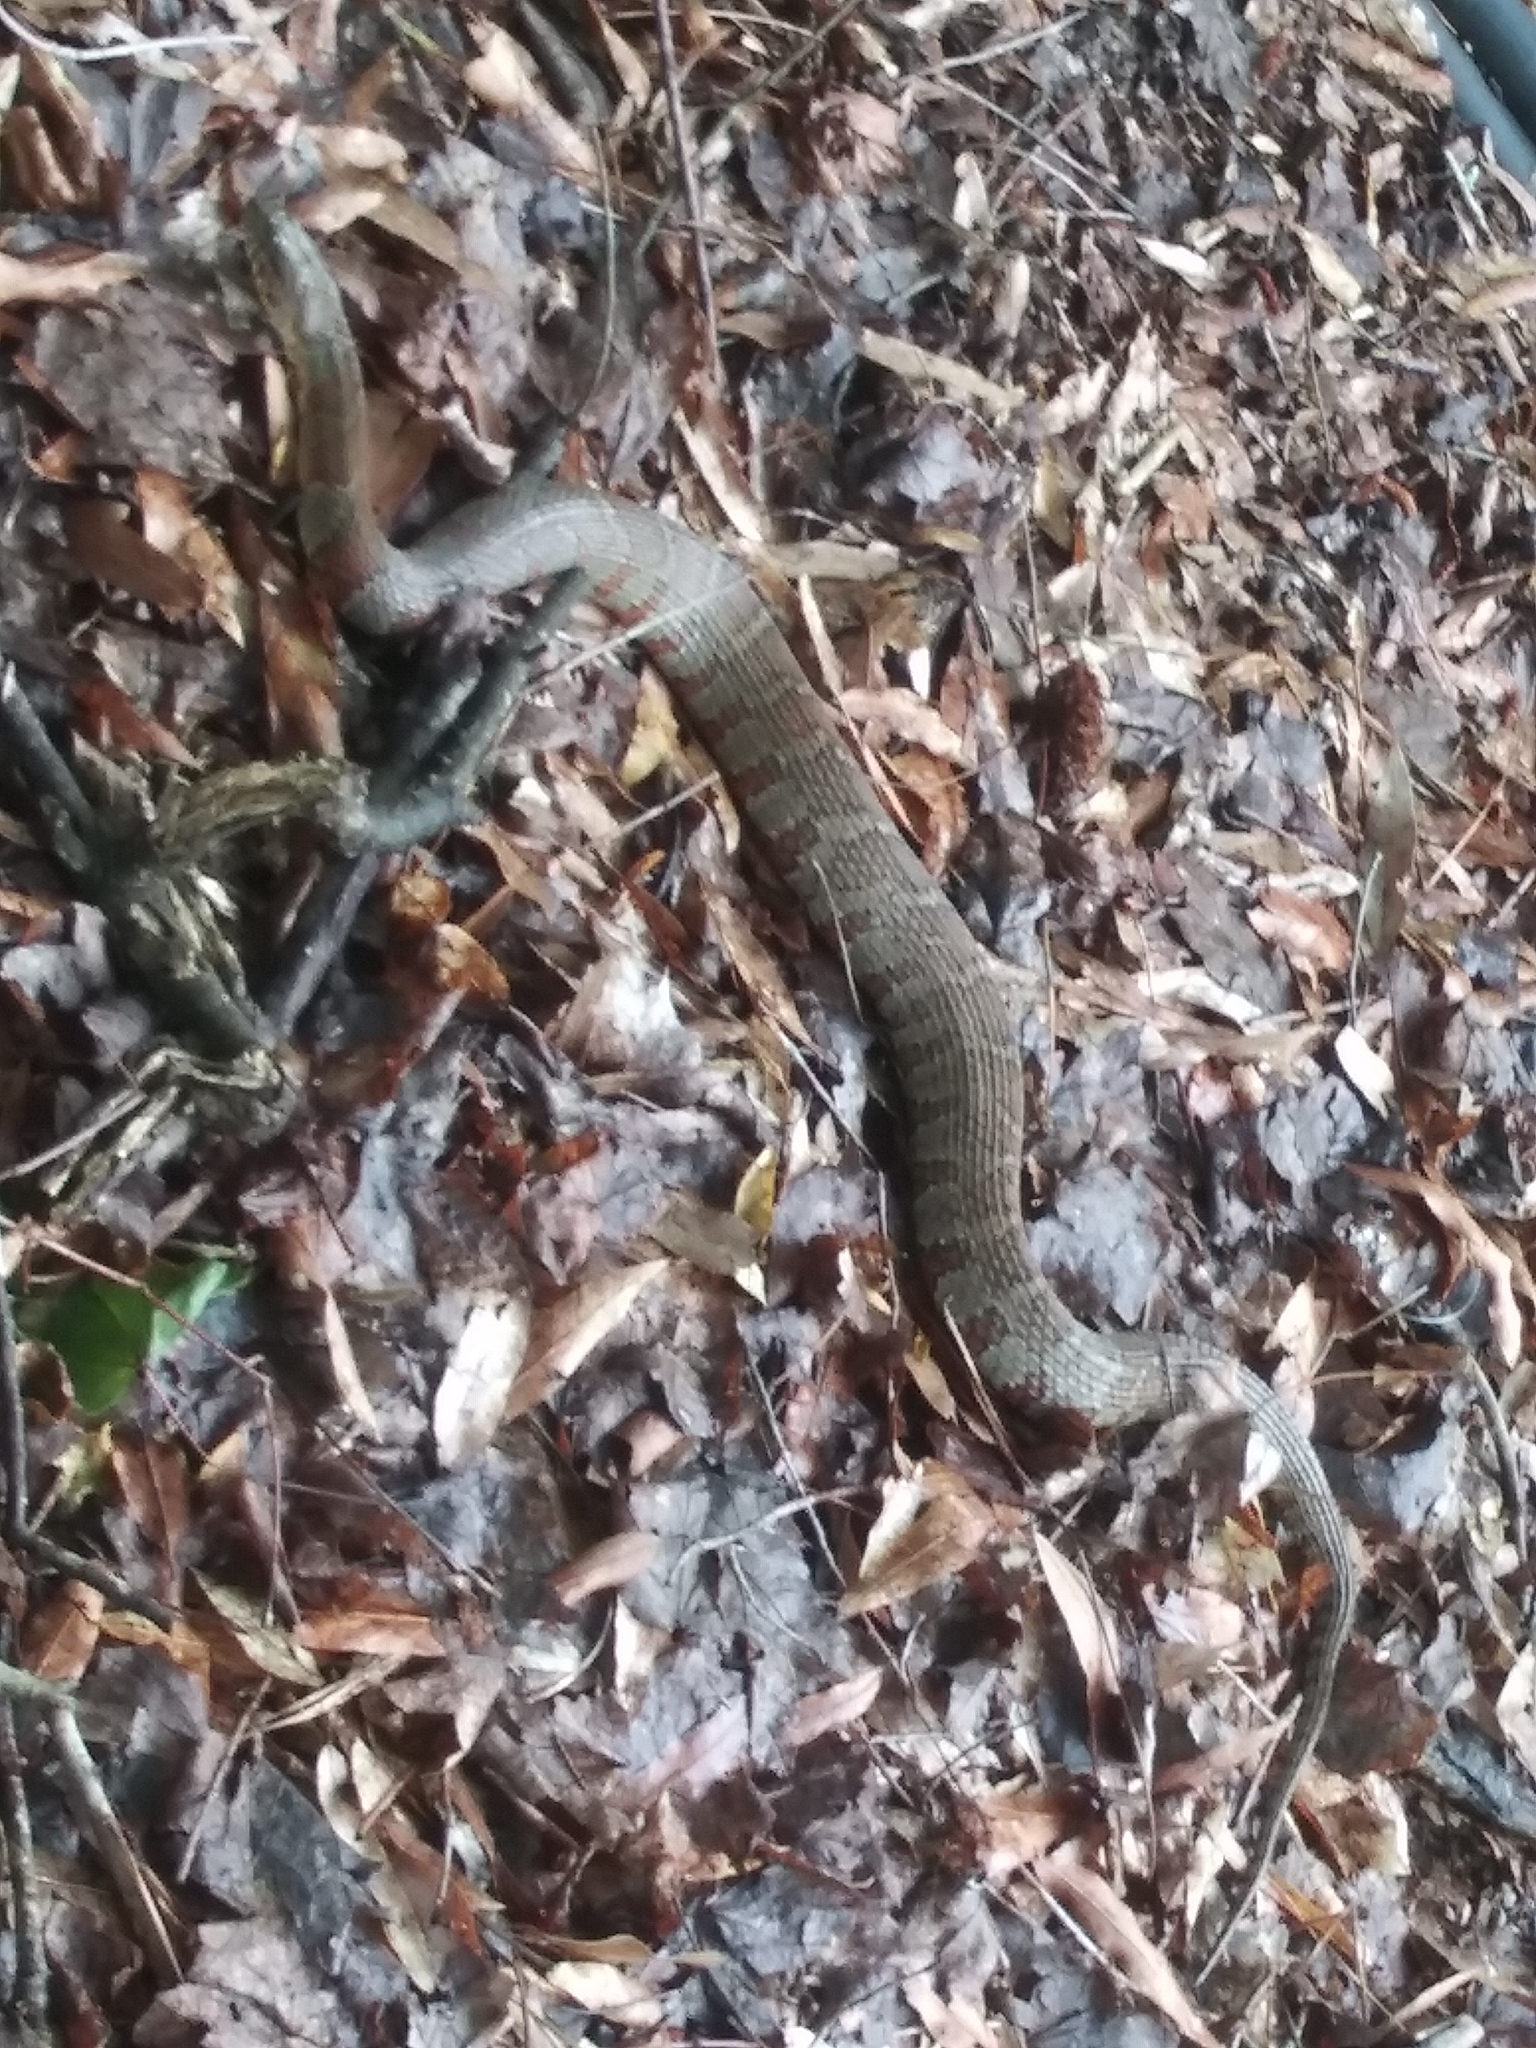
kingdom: Animalia
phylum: Chordata
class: Squamata
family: Colubridae
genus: Nerodia
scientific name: Nerodia sipedon
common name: Northern water snake
